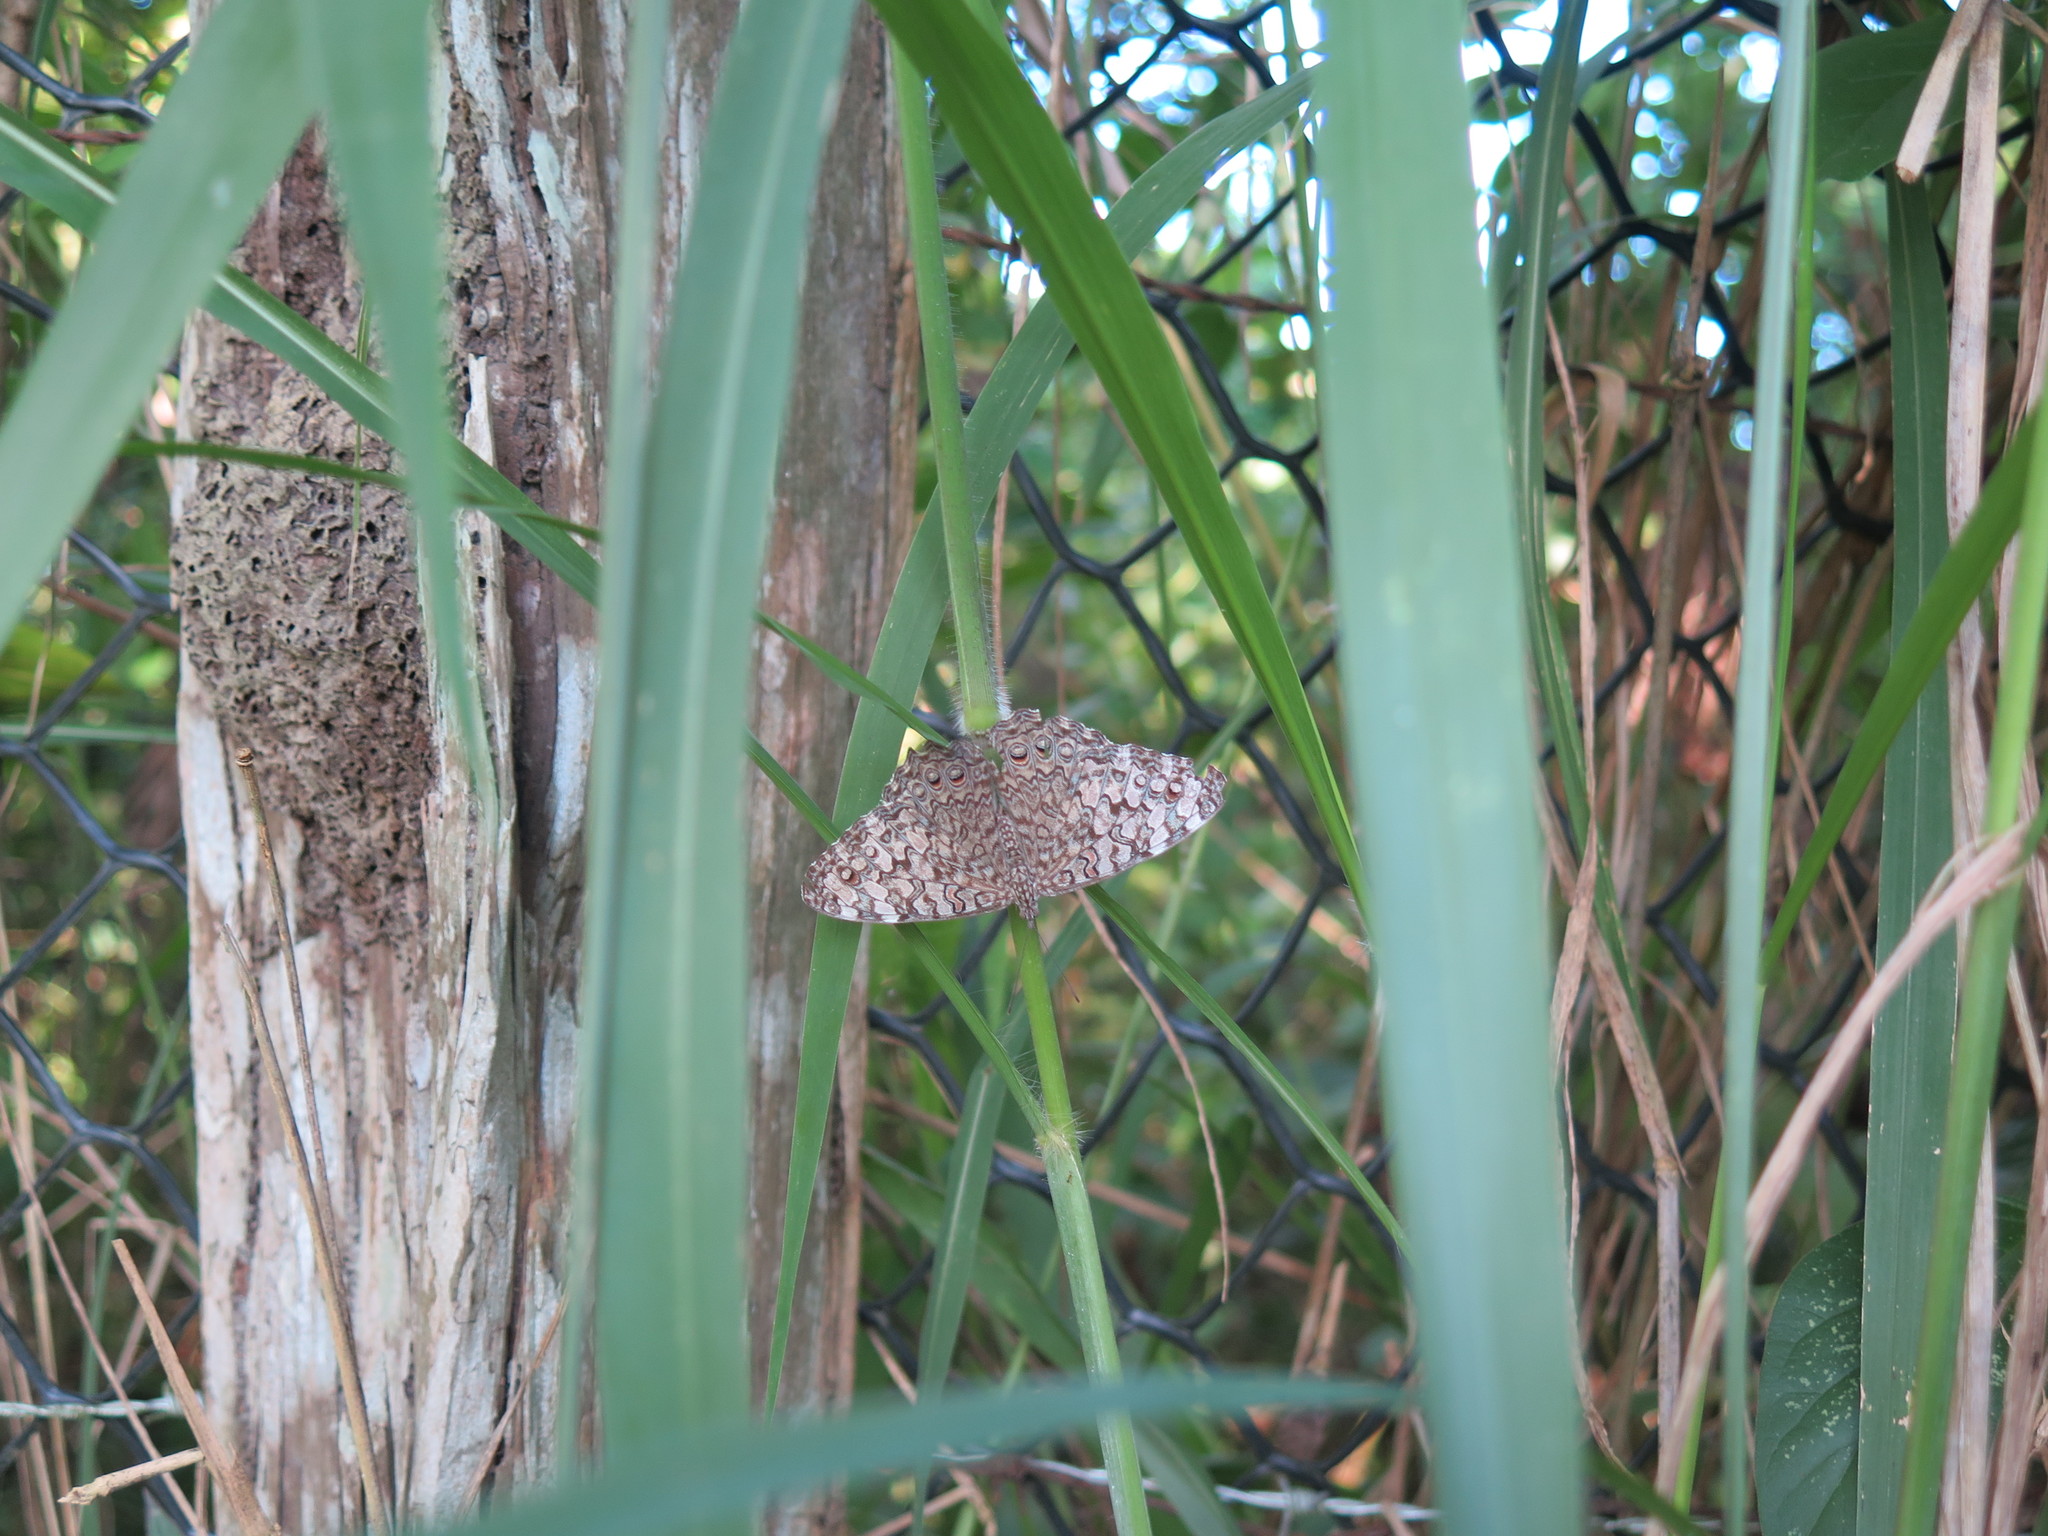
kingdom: Animalia
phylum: Arthropoda
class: Insecta
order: Lepidoptera
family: Nymphalidae
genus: Hamadryas
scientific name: Hamadryas februa
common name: Gray cracker
